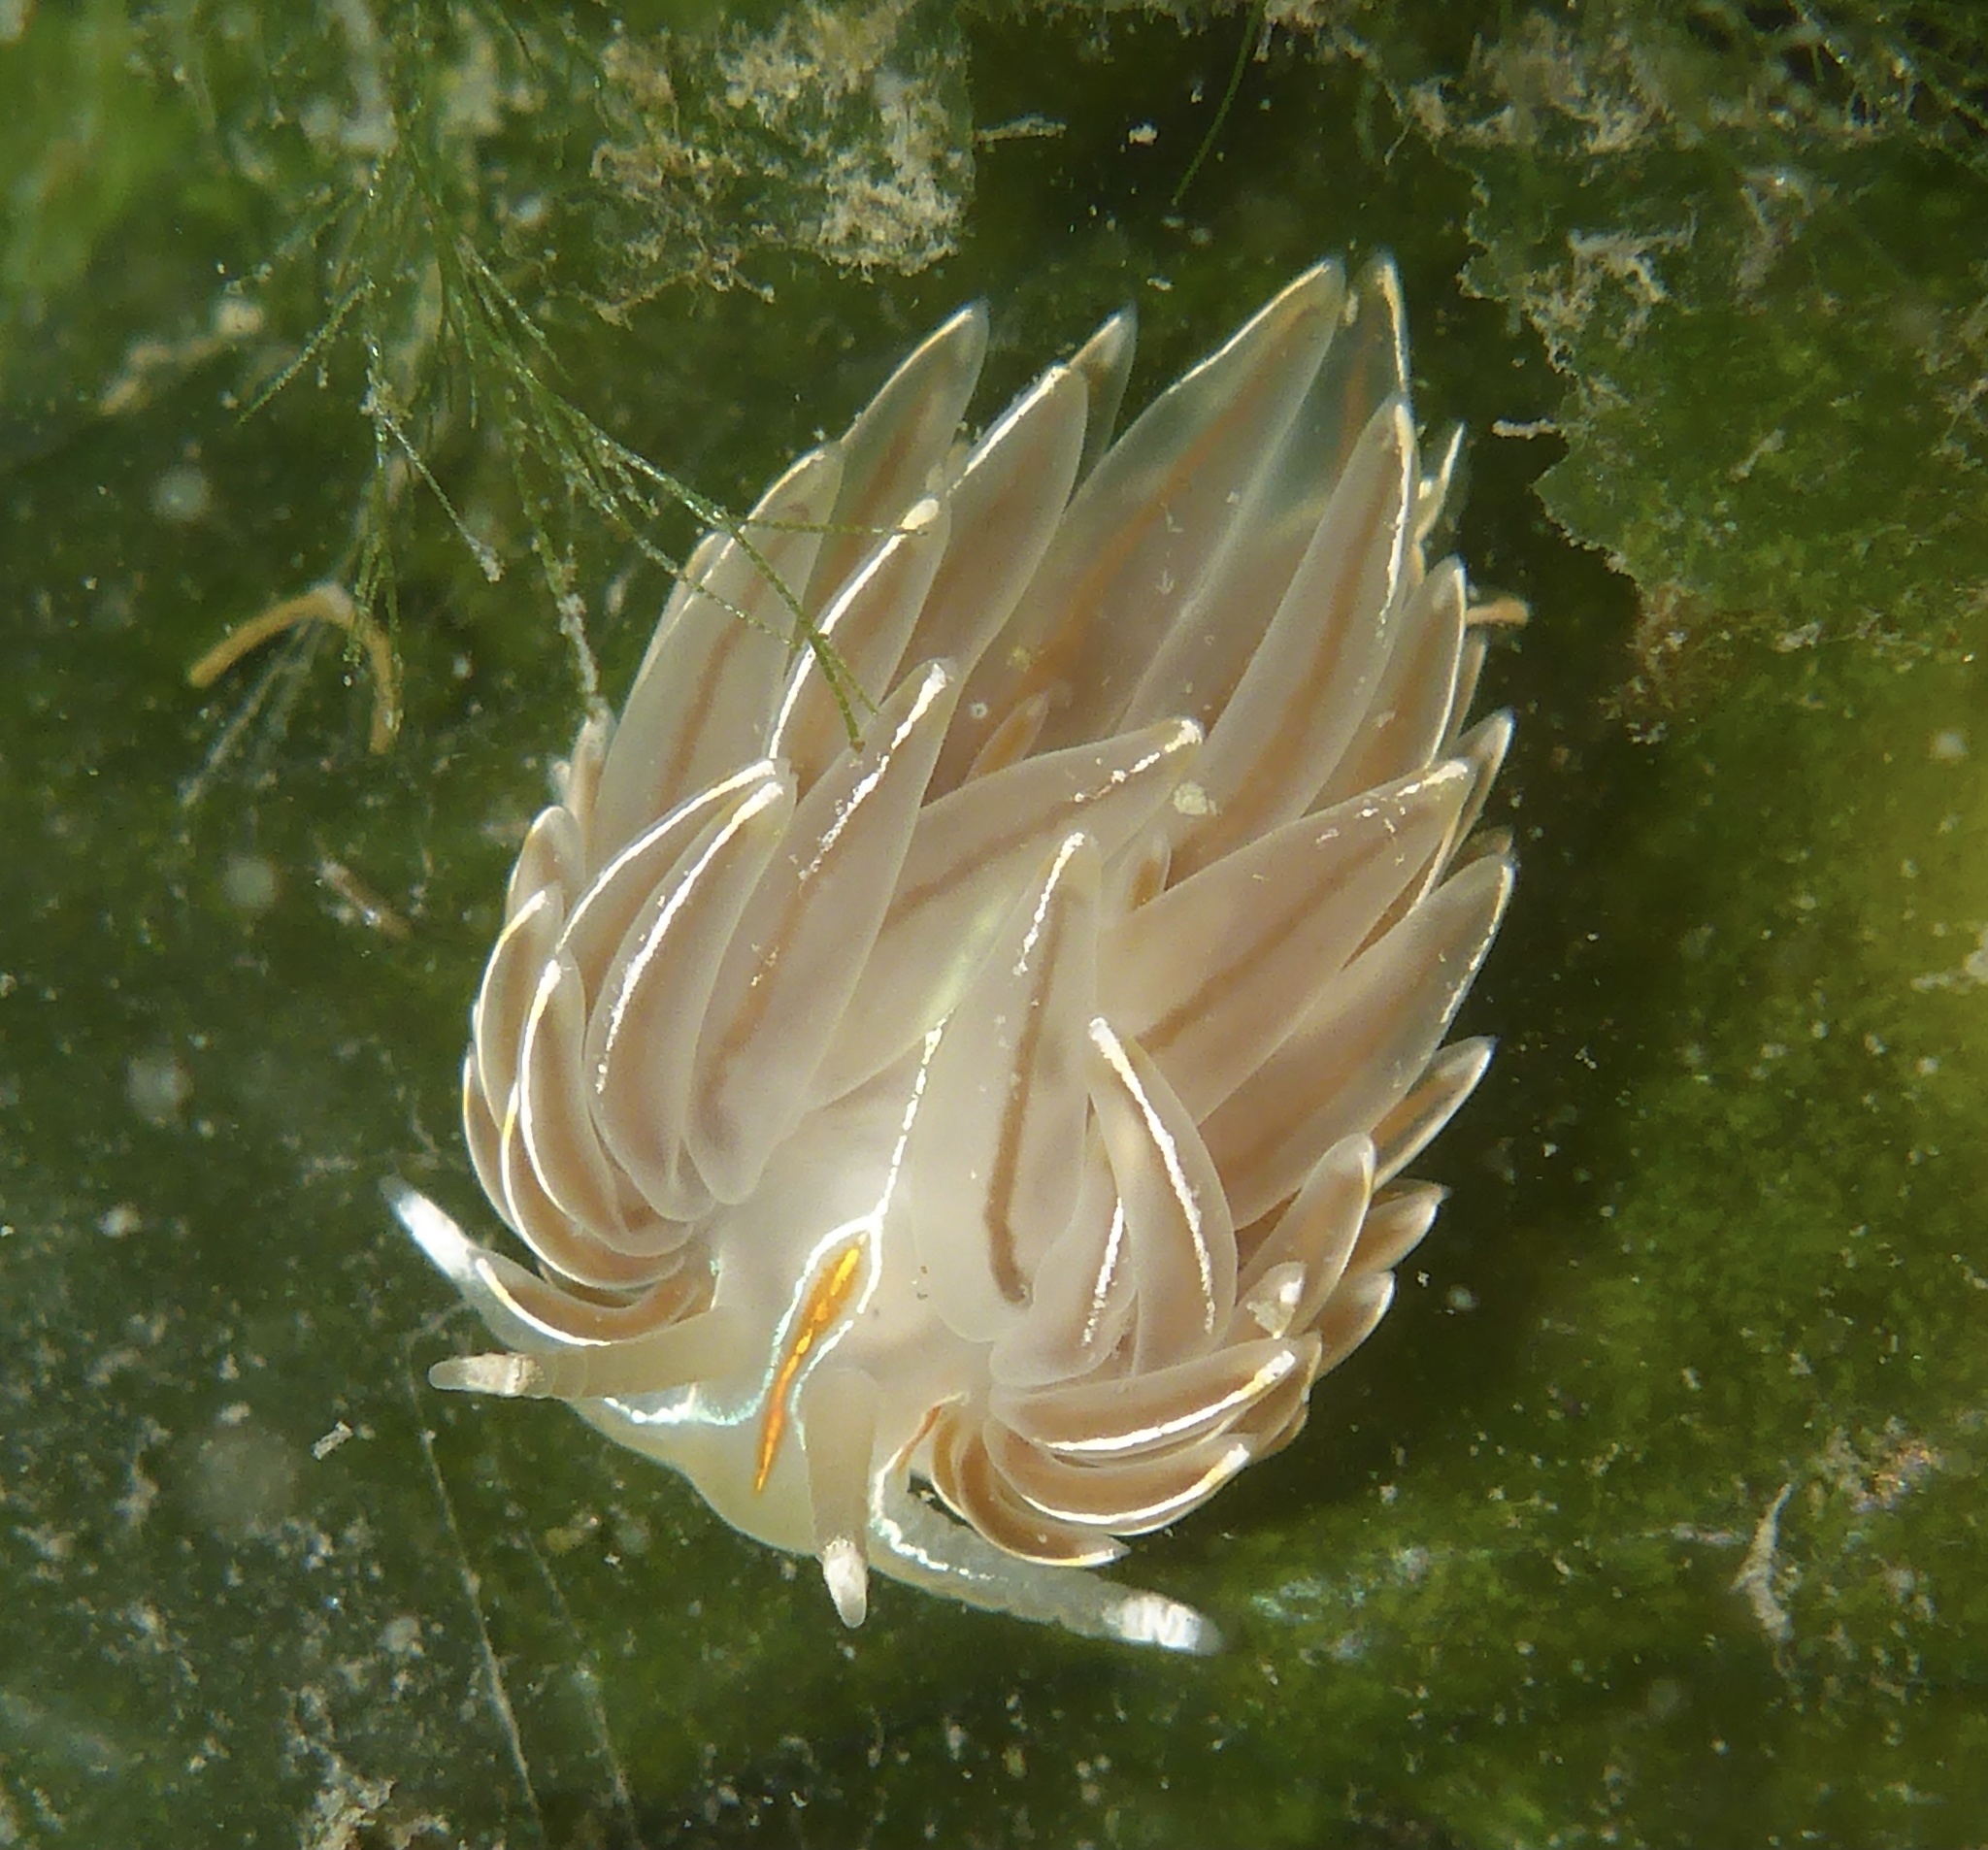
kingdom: Animalia
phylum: Mollusca
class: Gastropoda
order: Nudibranchia
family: Myrrhinidae
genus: Hermissenda
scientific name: Hermissenda crassicornis
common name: Hermissenda
